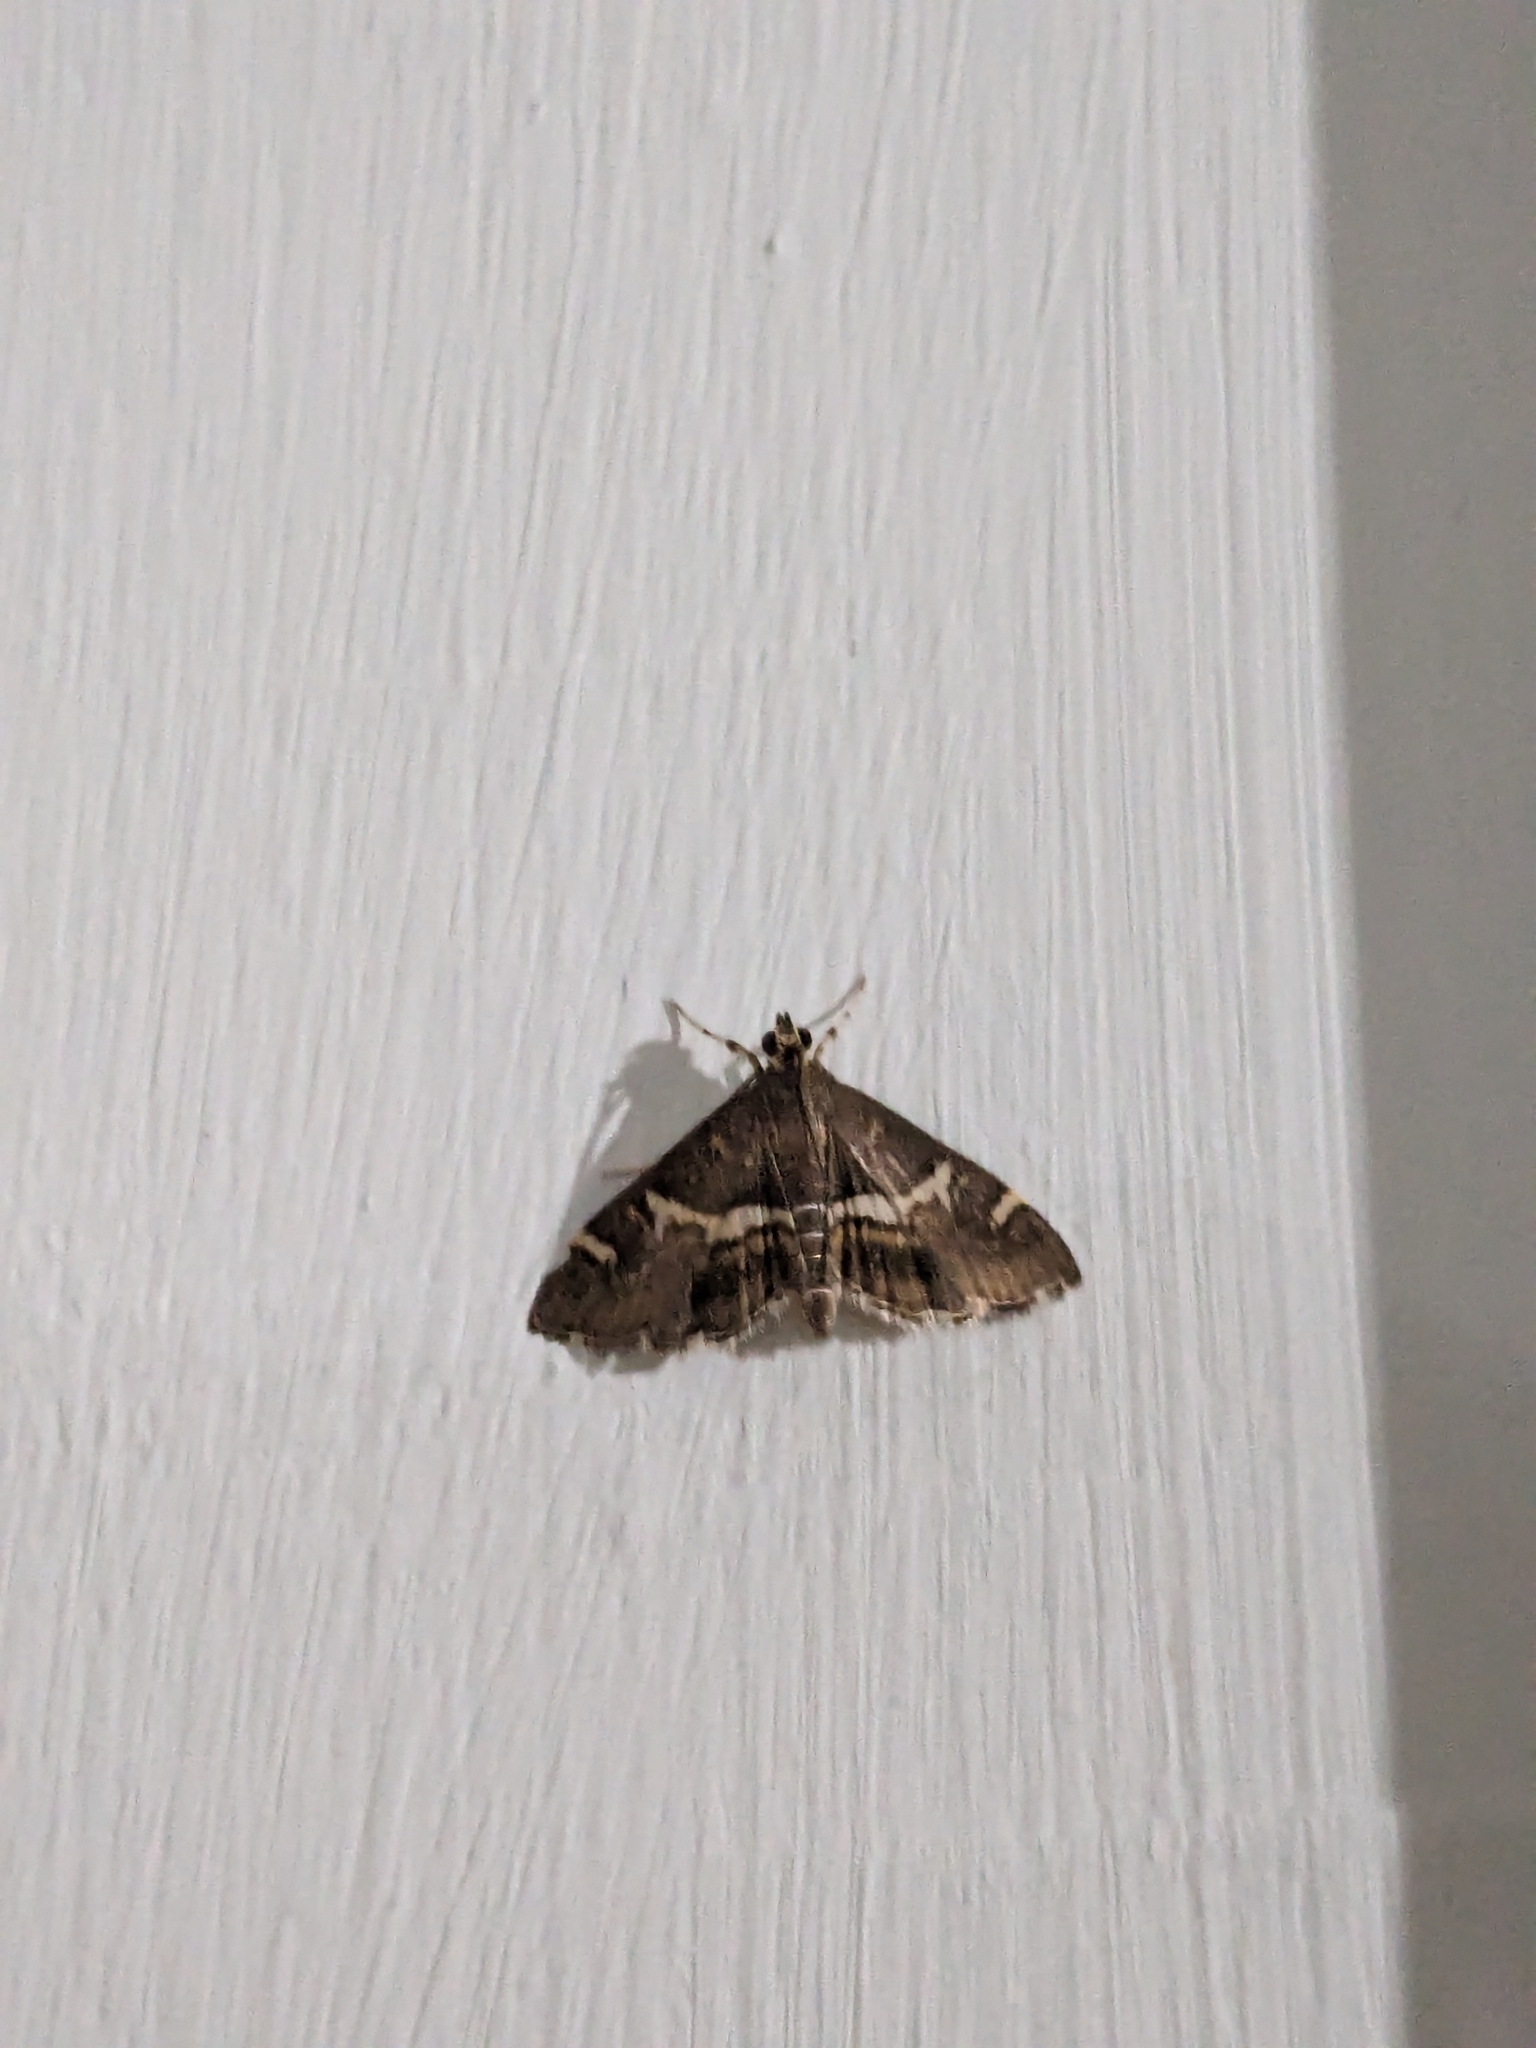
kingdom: Animalia
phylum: Arthropoda
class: Insecta
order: Lepidoptera
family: Crambidae
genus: Spoladea
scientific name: Spoladea recurvalis
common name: Beet webworm moth
